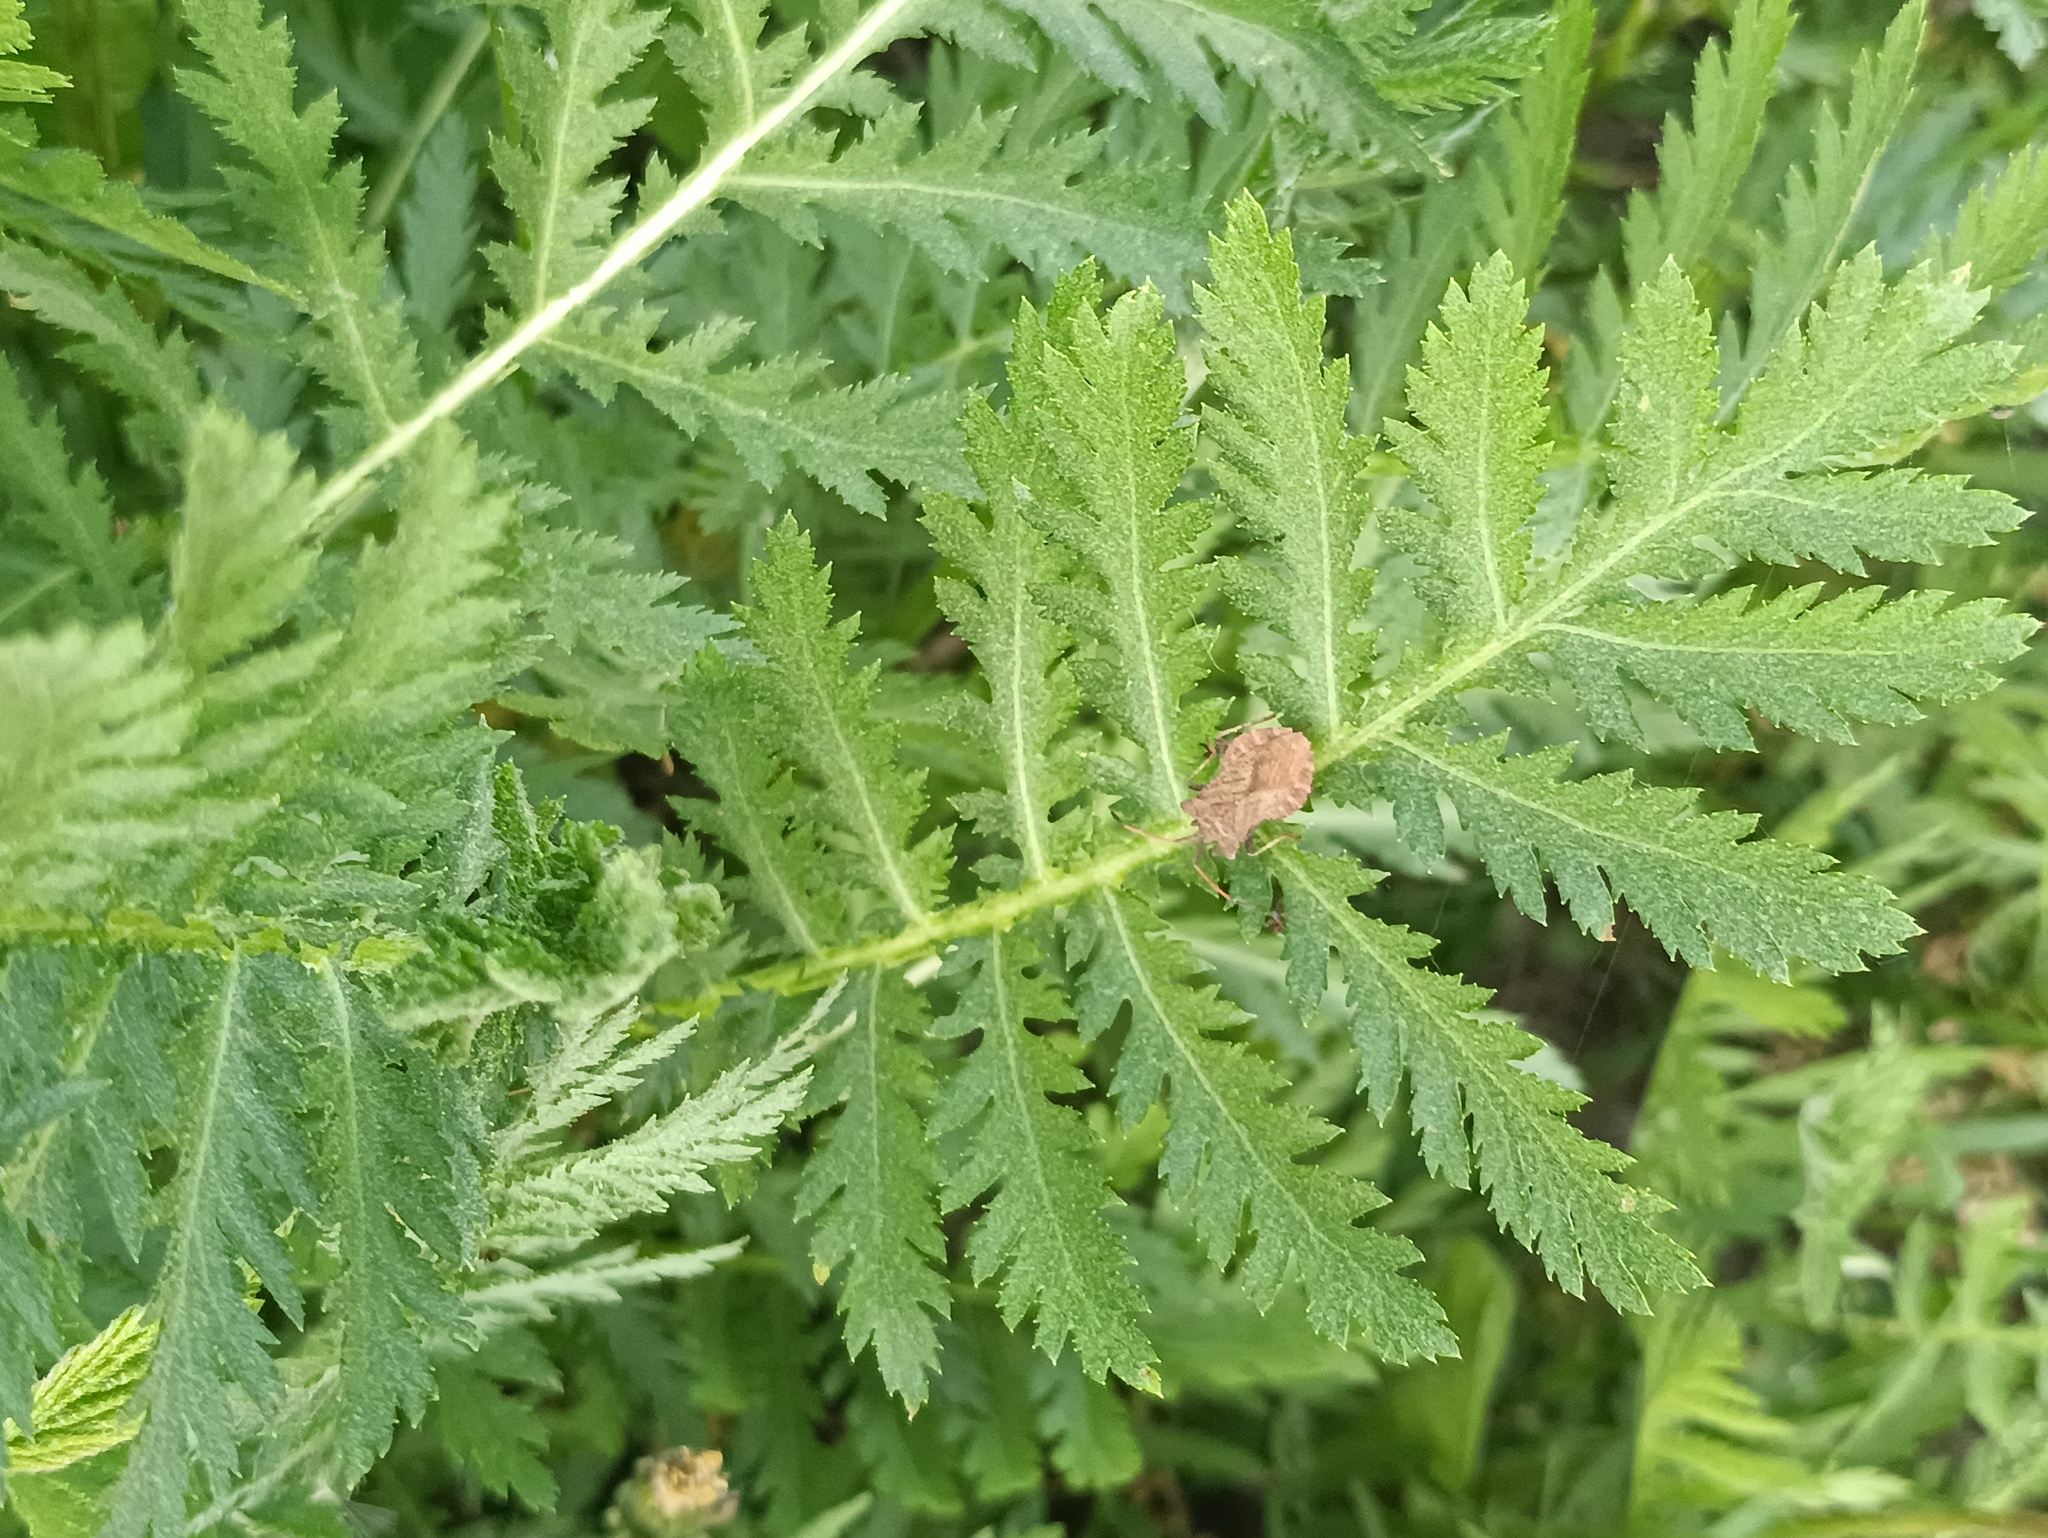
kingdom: Animalia
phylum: Arthropoda
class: Insecta
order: Hemiptera
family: Coreidae
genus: Coreus
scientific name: Coreus marginatus
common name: Dock bug
